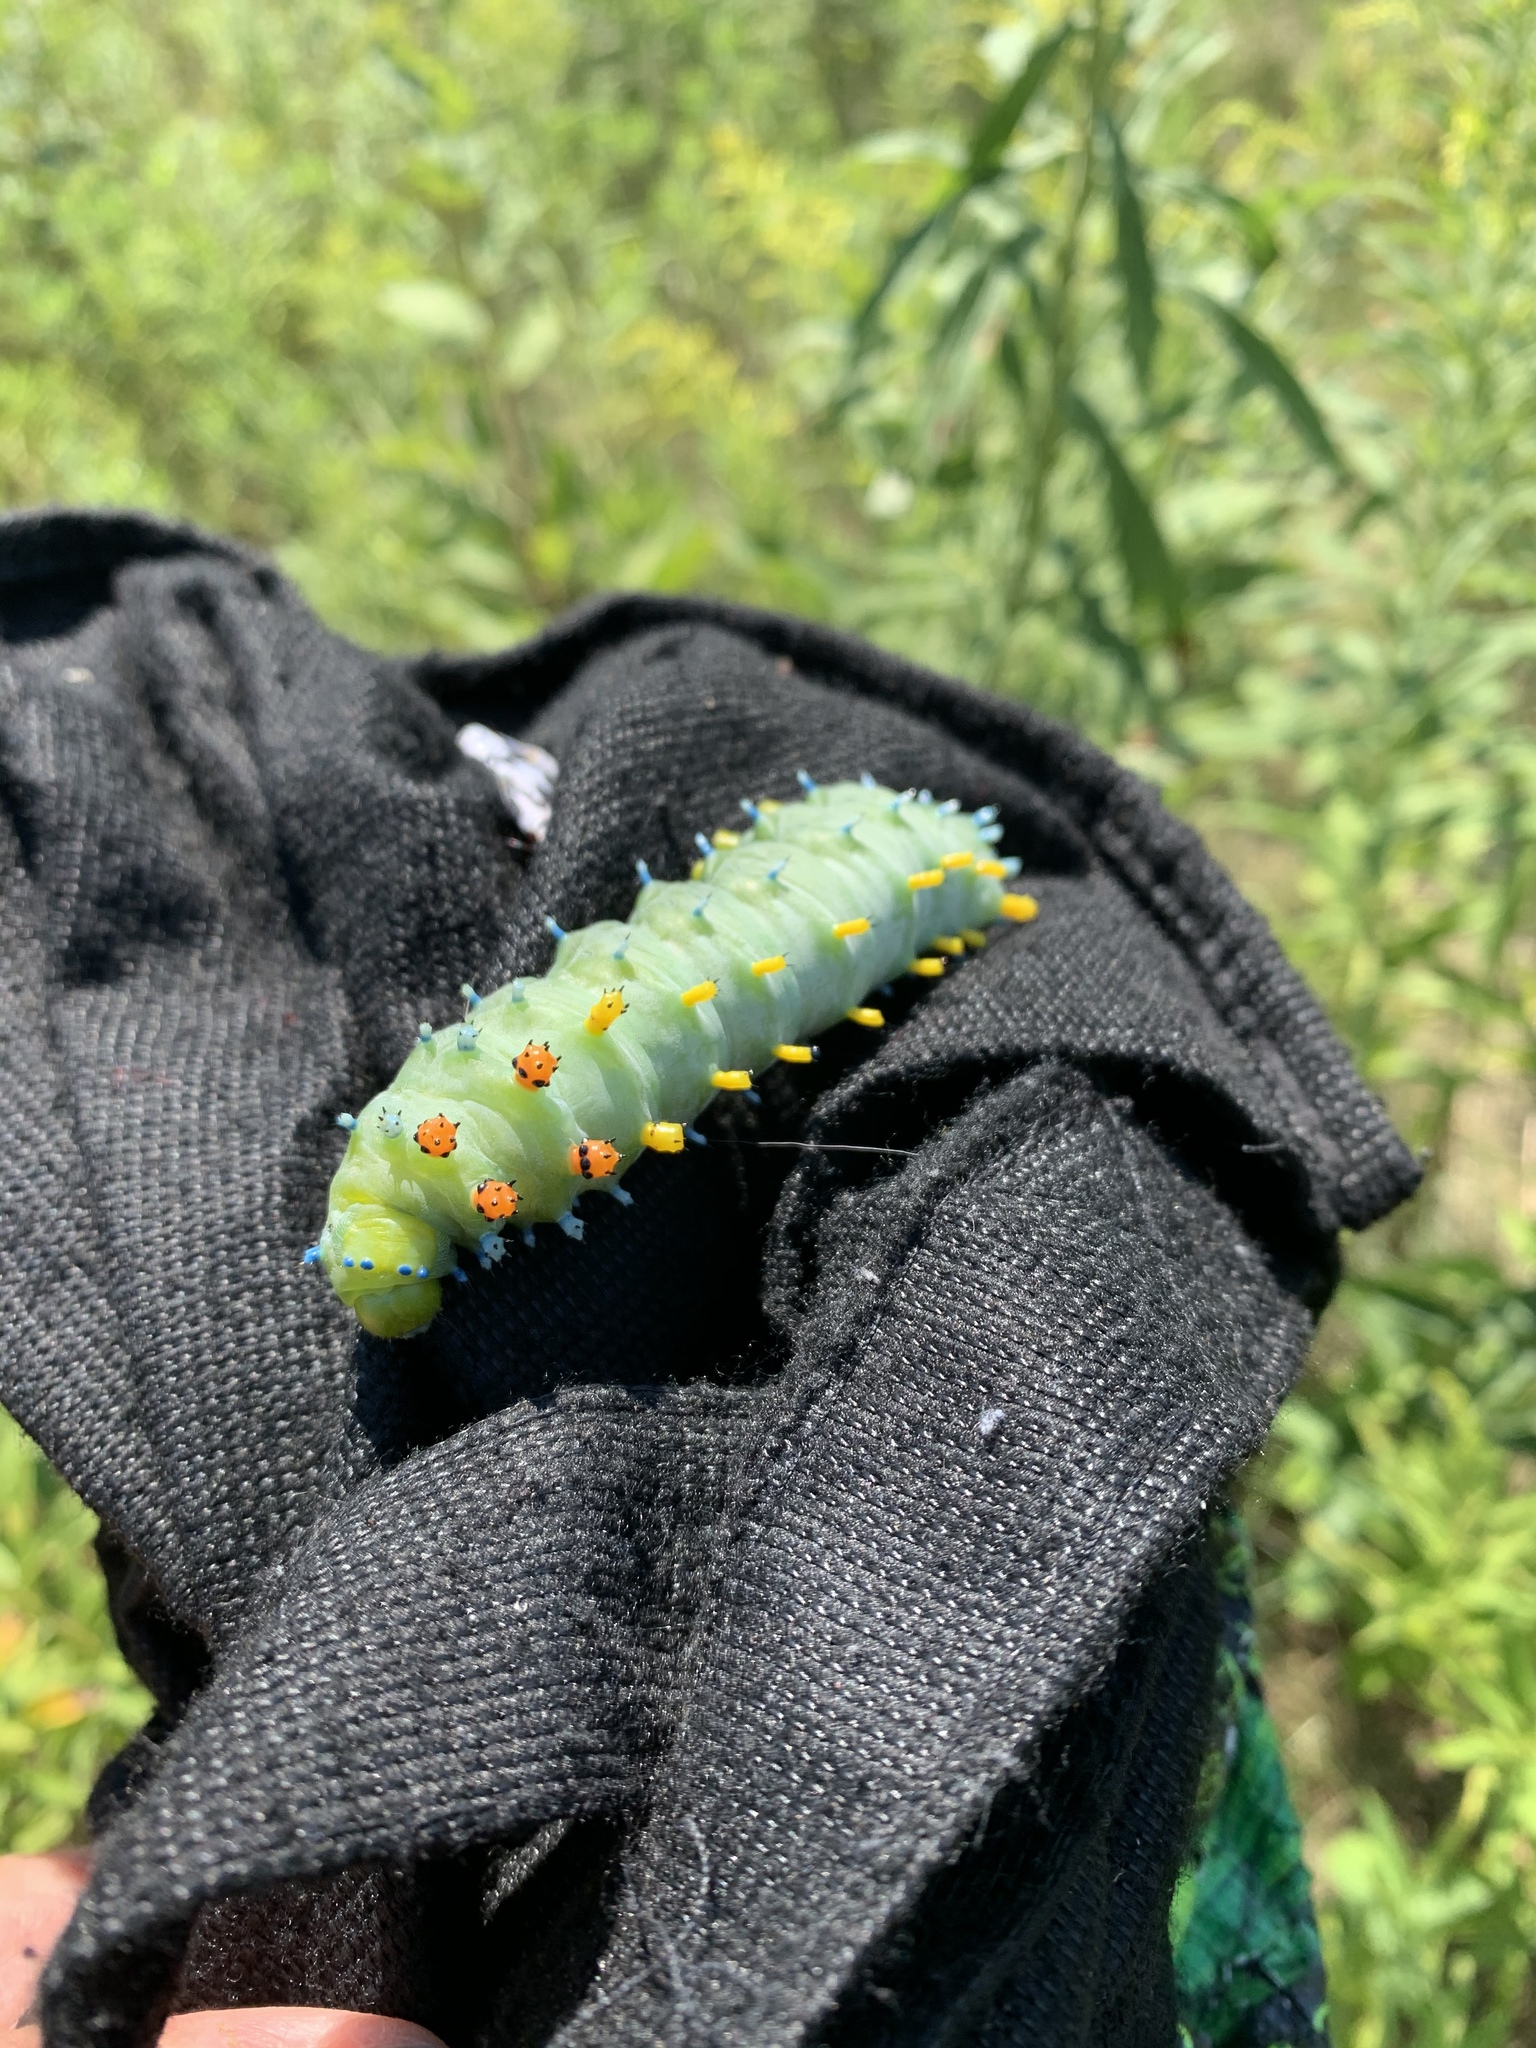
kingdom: Animalia
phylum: Arthropoda
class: Insecta
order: Lepidoptera
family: Saturniidae
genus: Hyalophora
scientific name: Hyalophora cecropia
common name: Cecropia silkmoth
